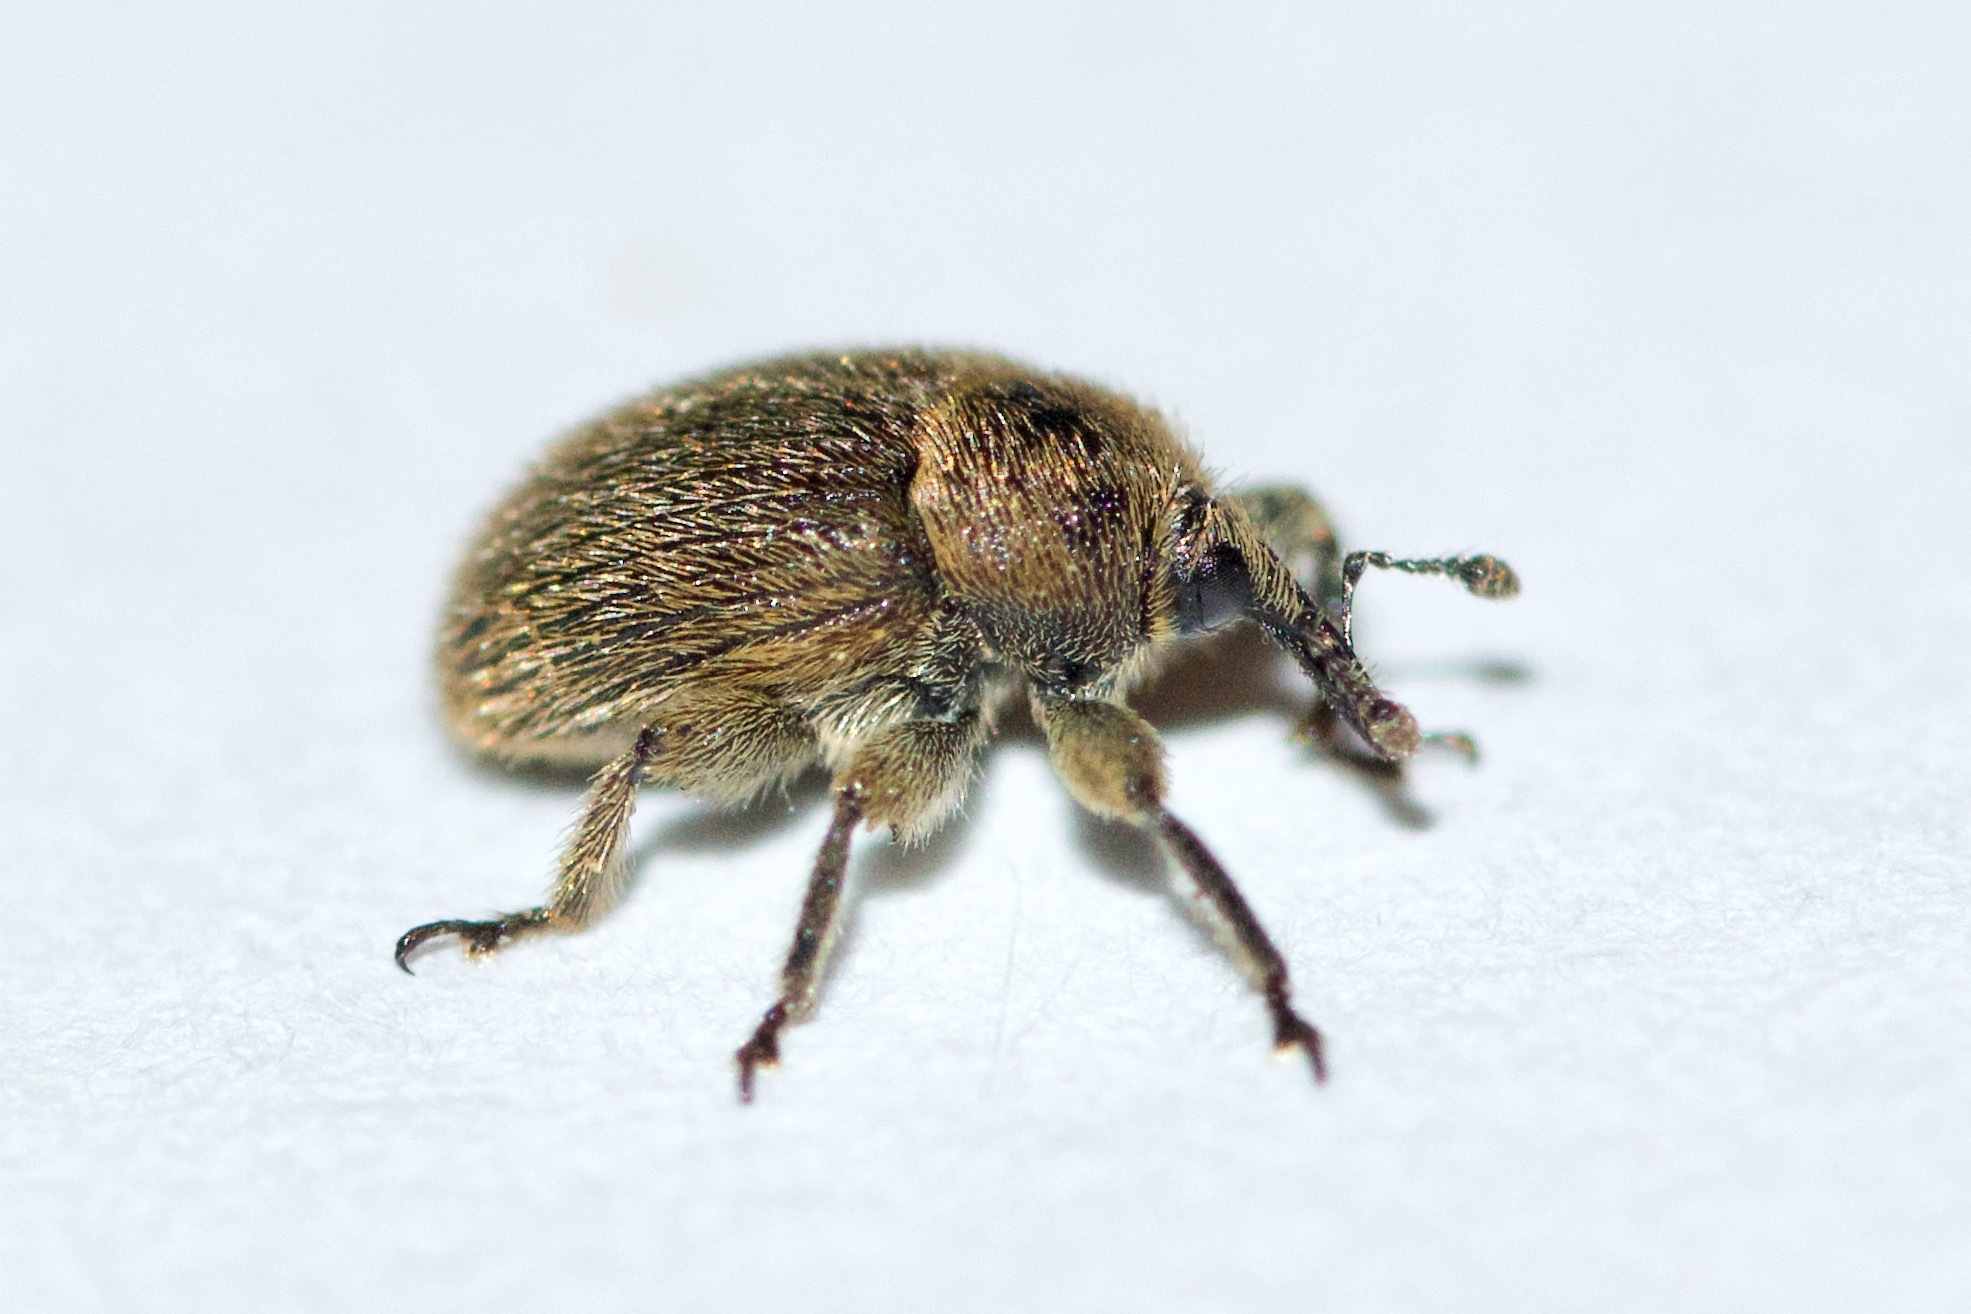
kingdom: Animalia
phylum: Arthropoda
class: Insecta
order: Coleoptera
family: Curculionidae
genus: Rhinusa
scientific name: Rhinusa tetra
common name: Weevil
